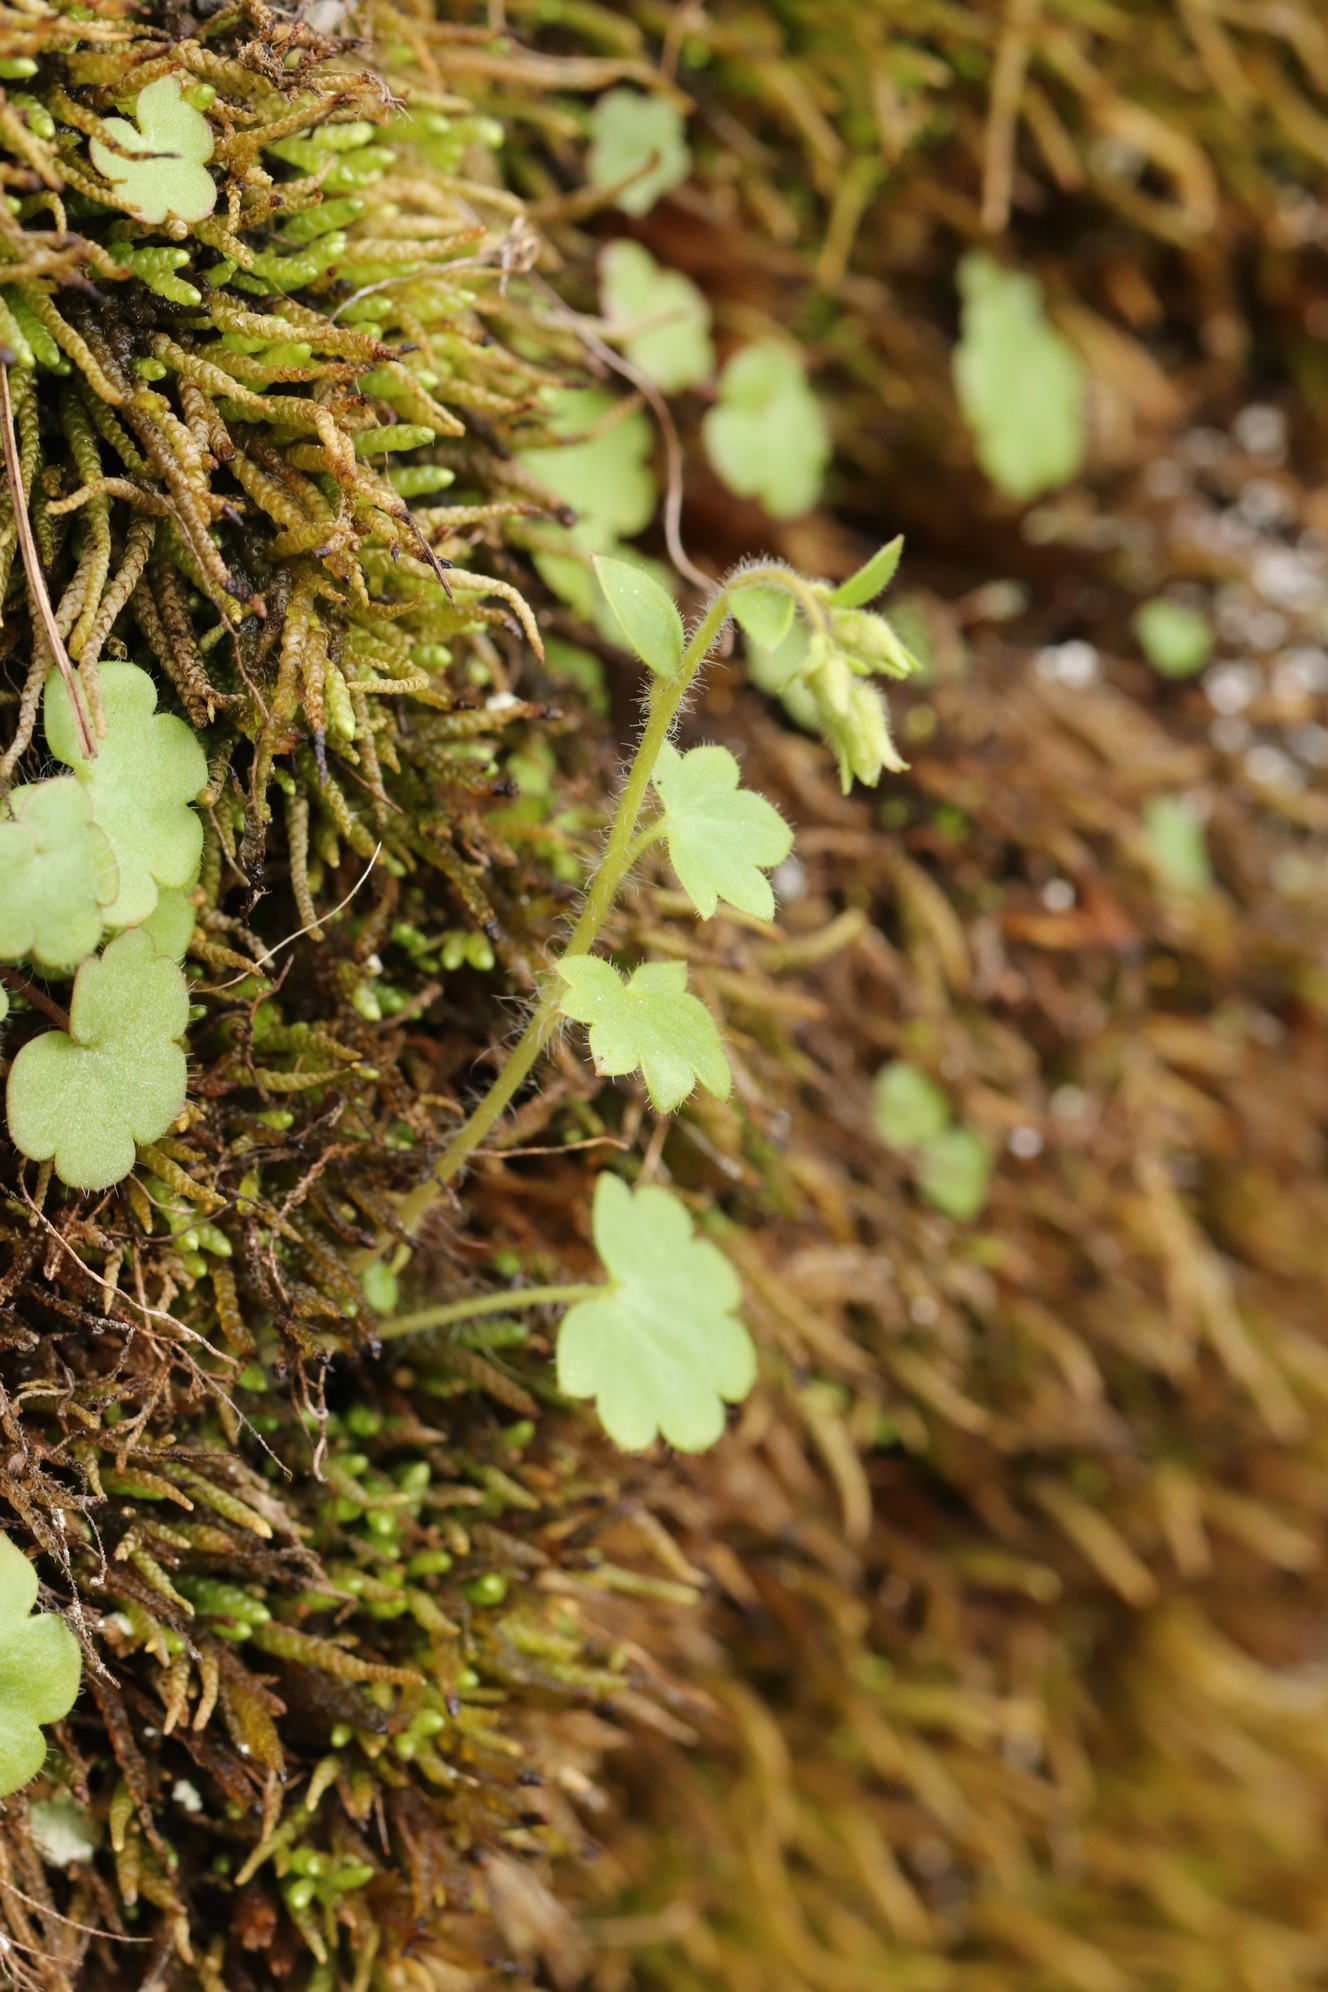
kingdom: Plantae
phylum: Tracheophyta
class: Magnoliopsida
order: Saxifragales
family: Saxifragaceae
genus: Saxifraga
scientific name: Saxifraga sibirica
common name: Siberian saxifrage
